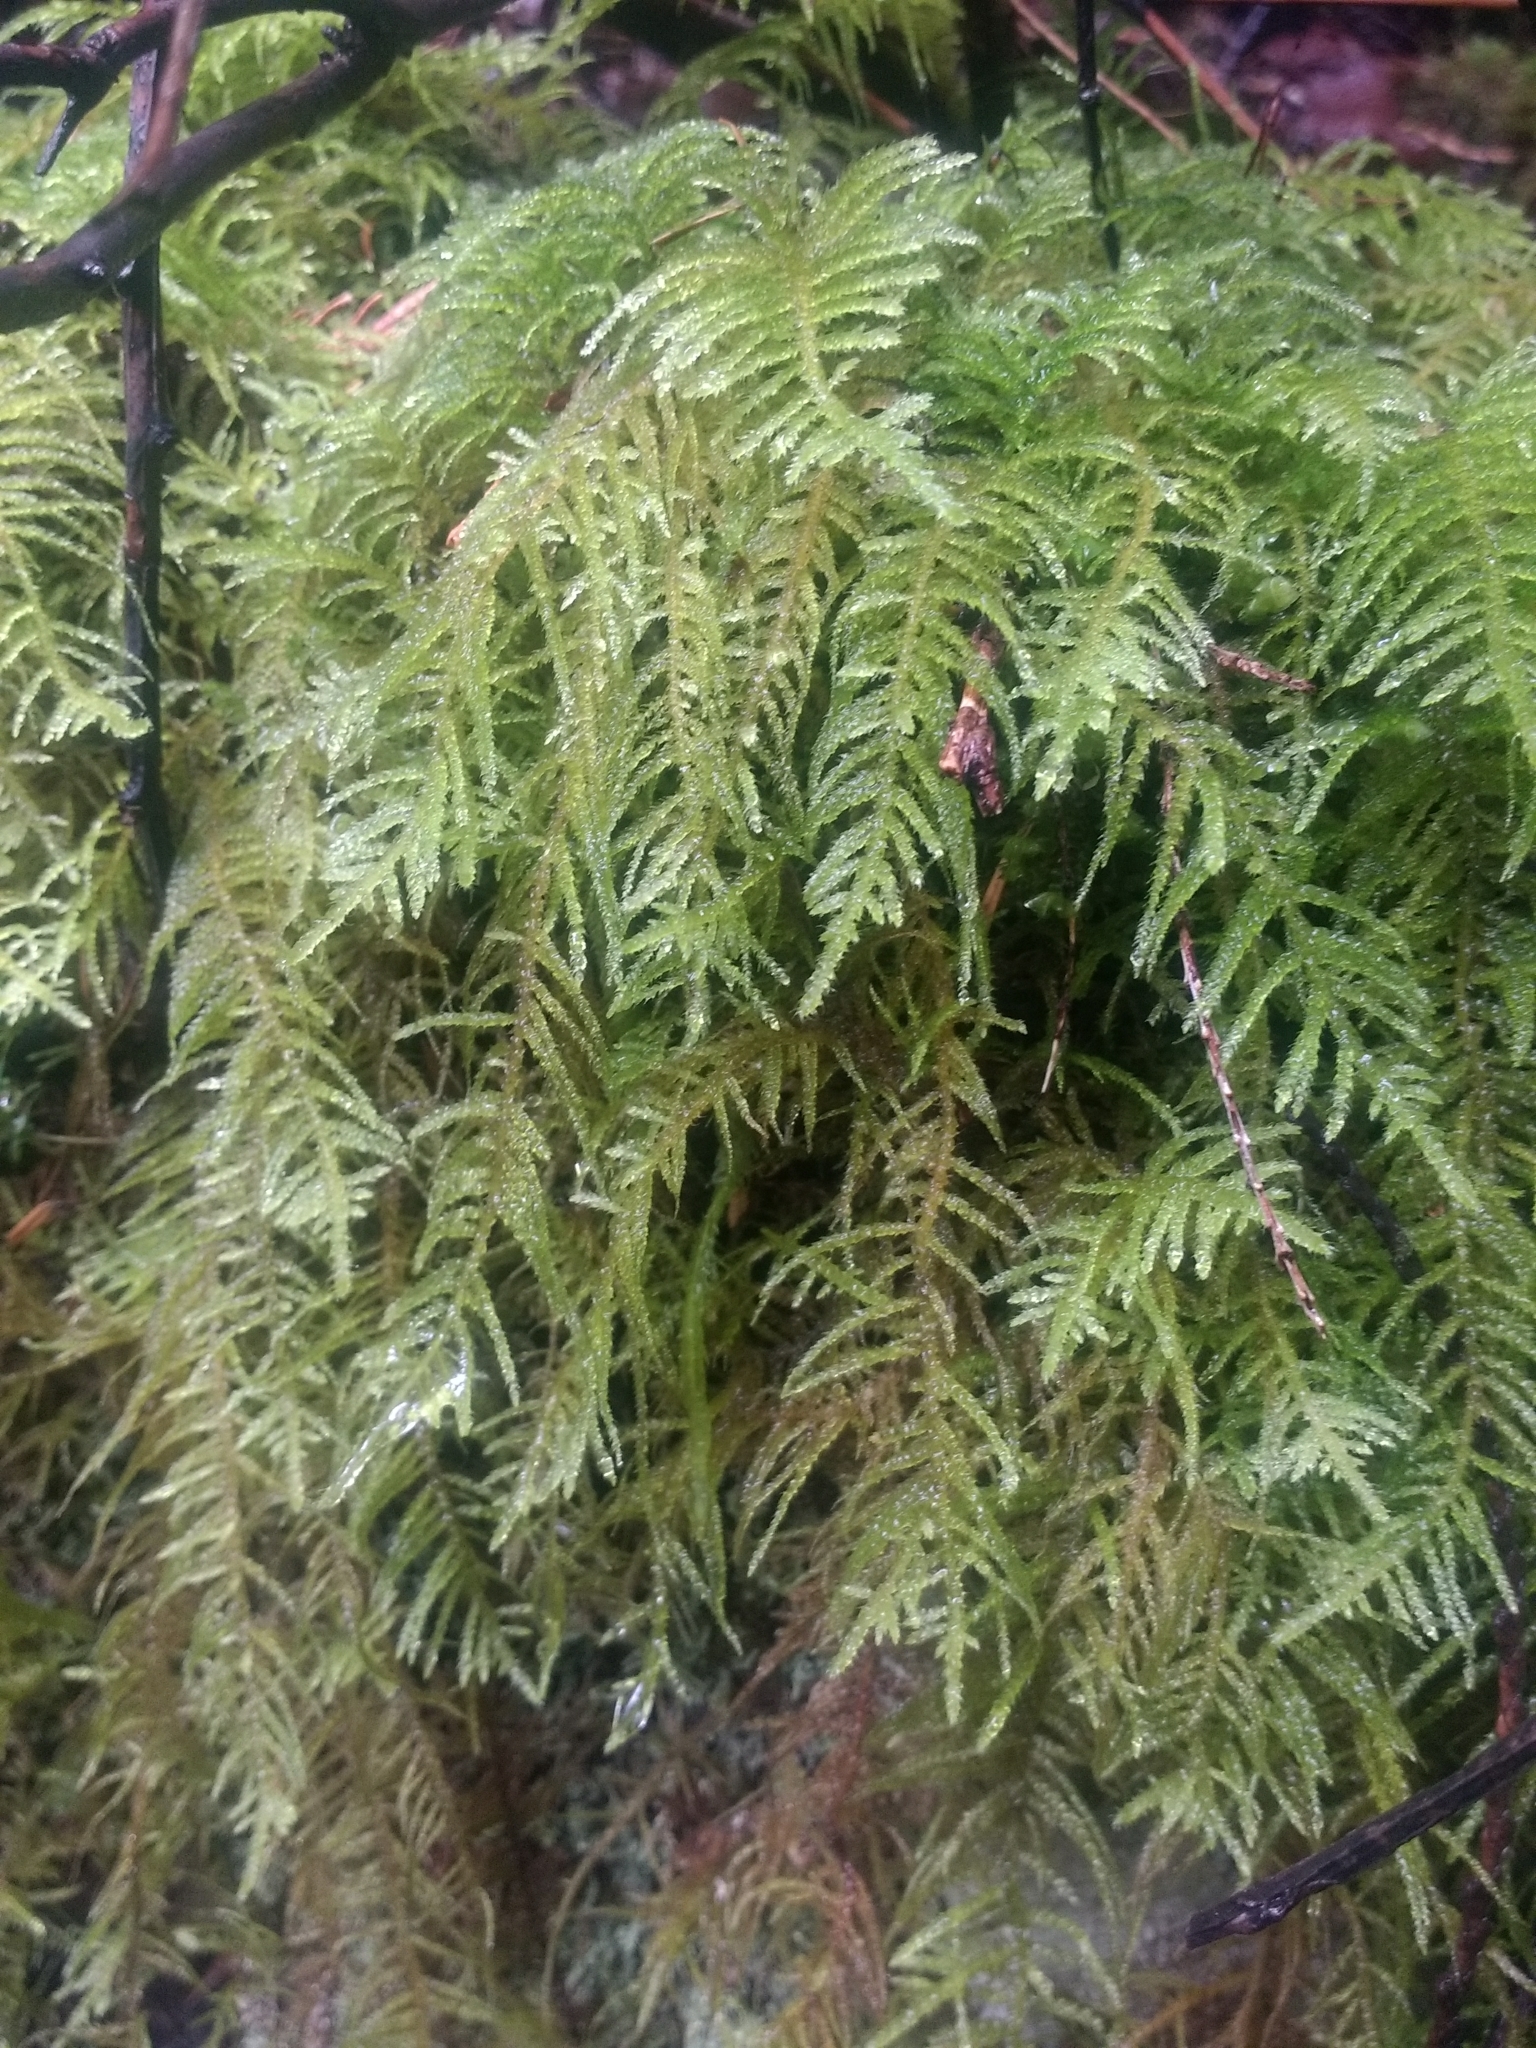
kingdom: Plantae
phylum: Bryophyta
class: Bryopsida
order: Hypnales
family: Brachytheciaceae
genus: Kindbergia
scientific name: Kindbergia oregana
